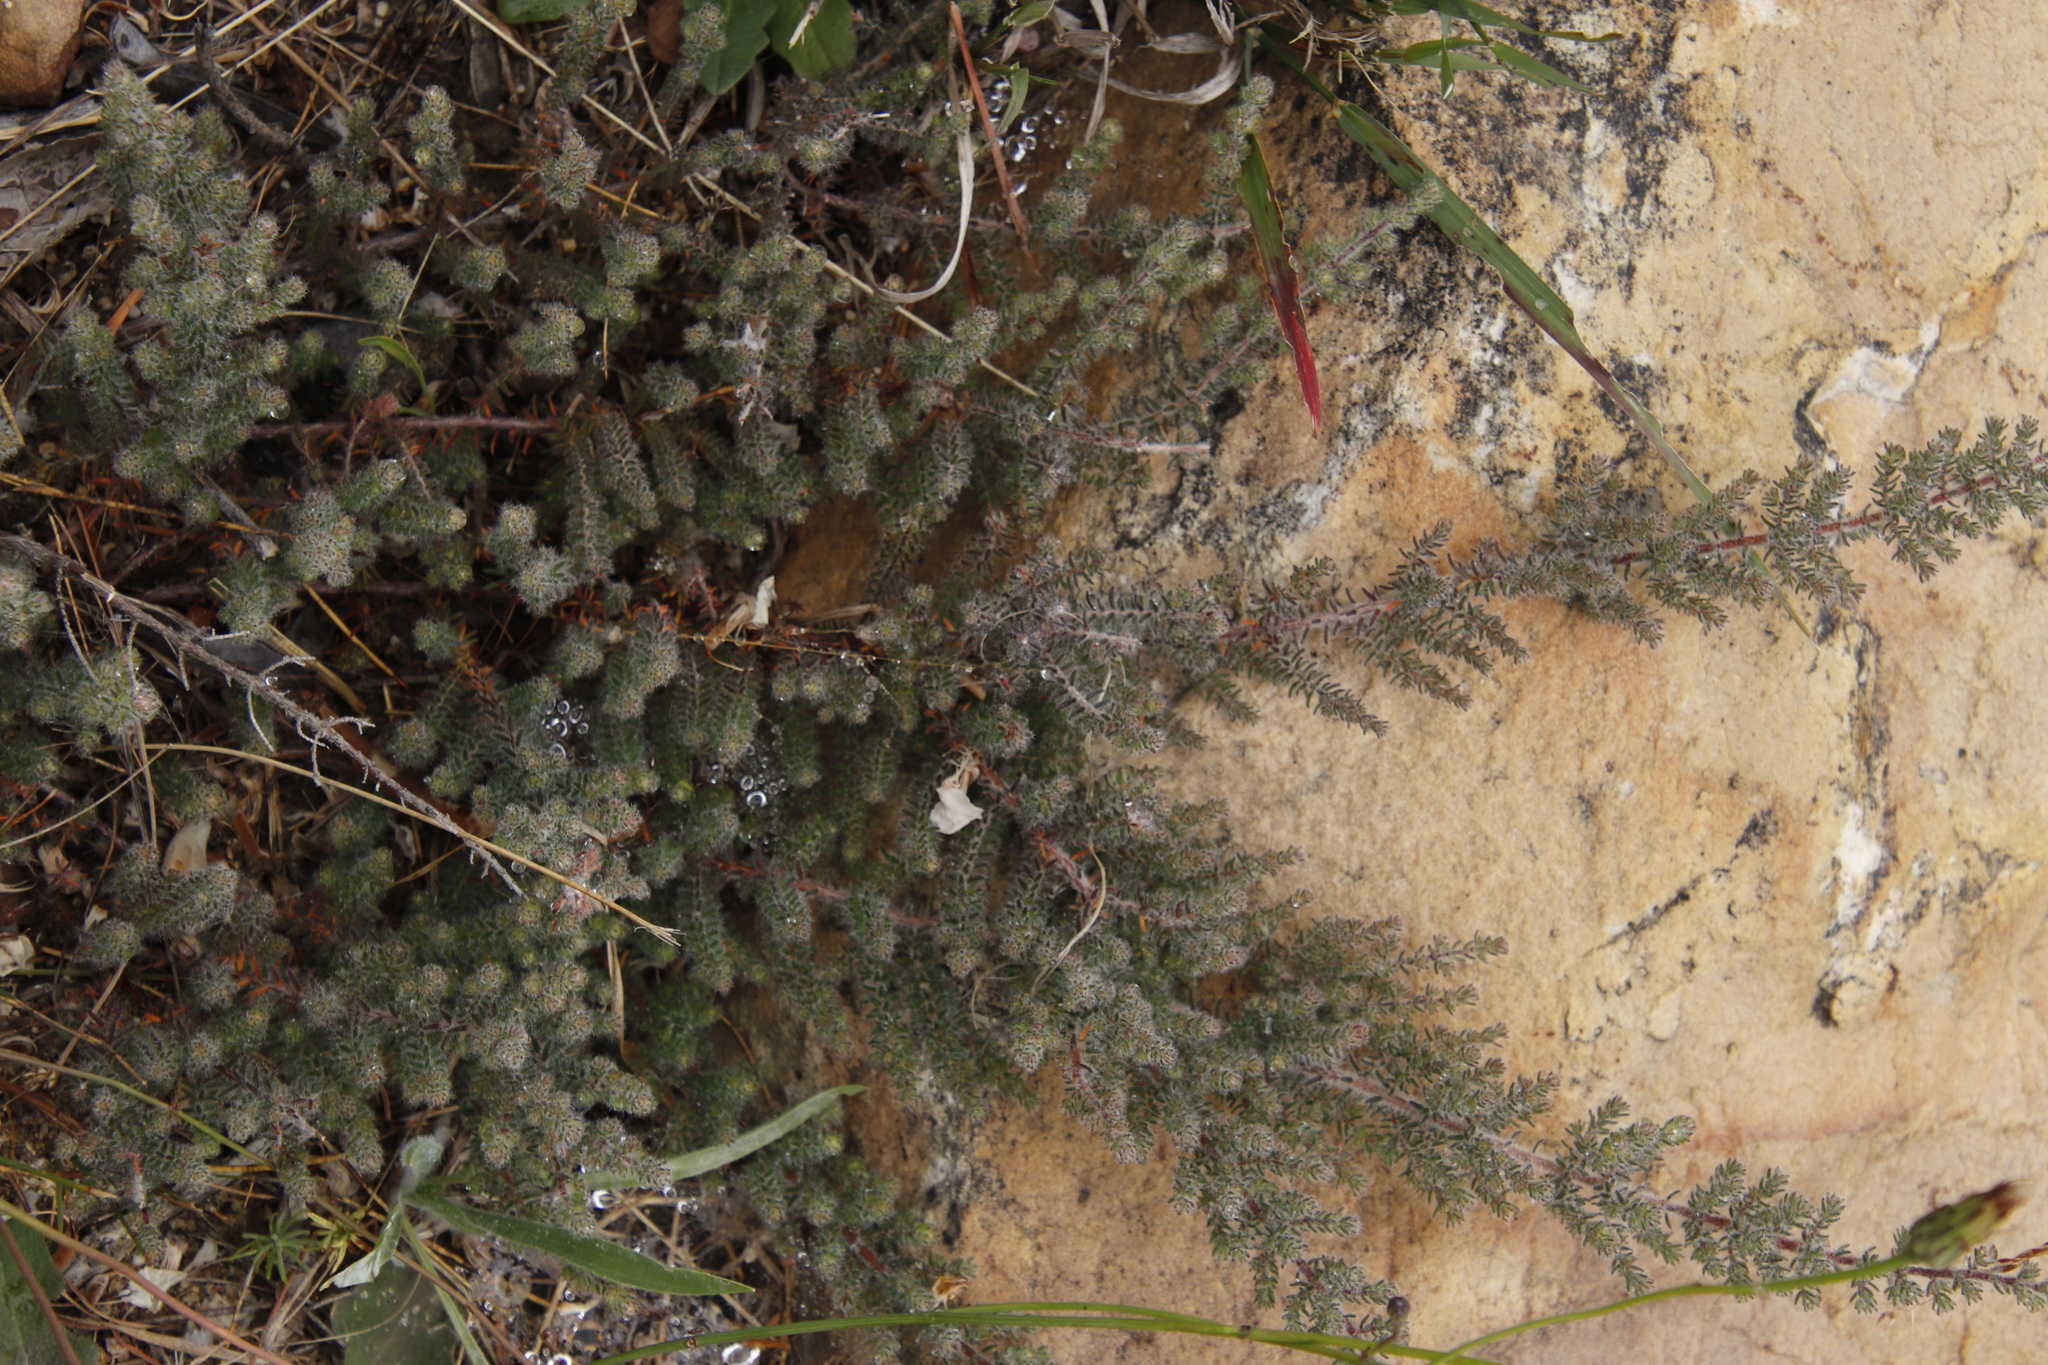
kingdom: Plantae
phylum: Tracheophyta
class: Magnoliopsida
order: Ericales
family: Ericaceae
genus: Erica
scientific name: Erica totta
